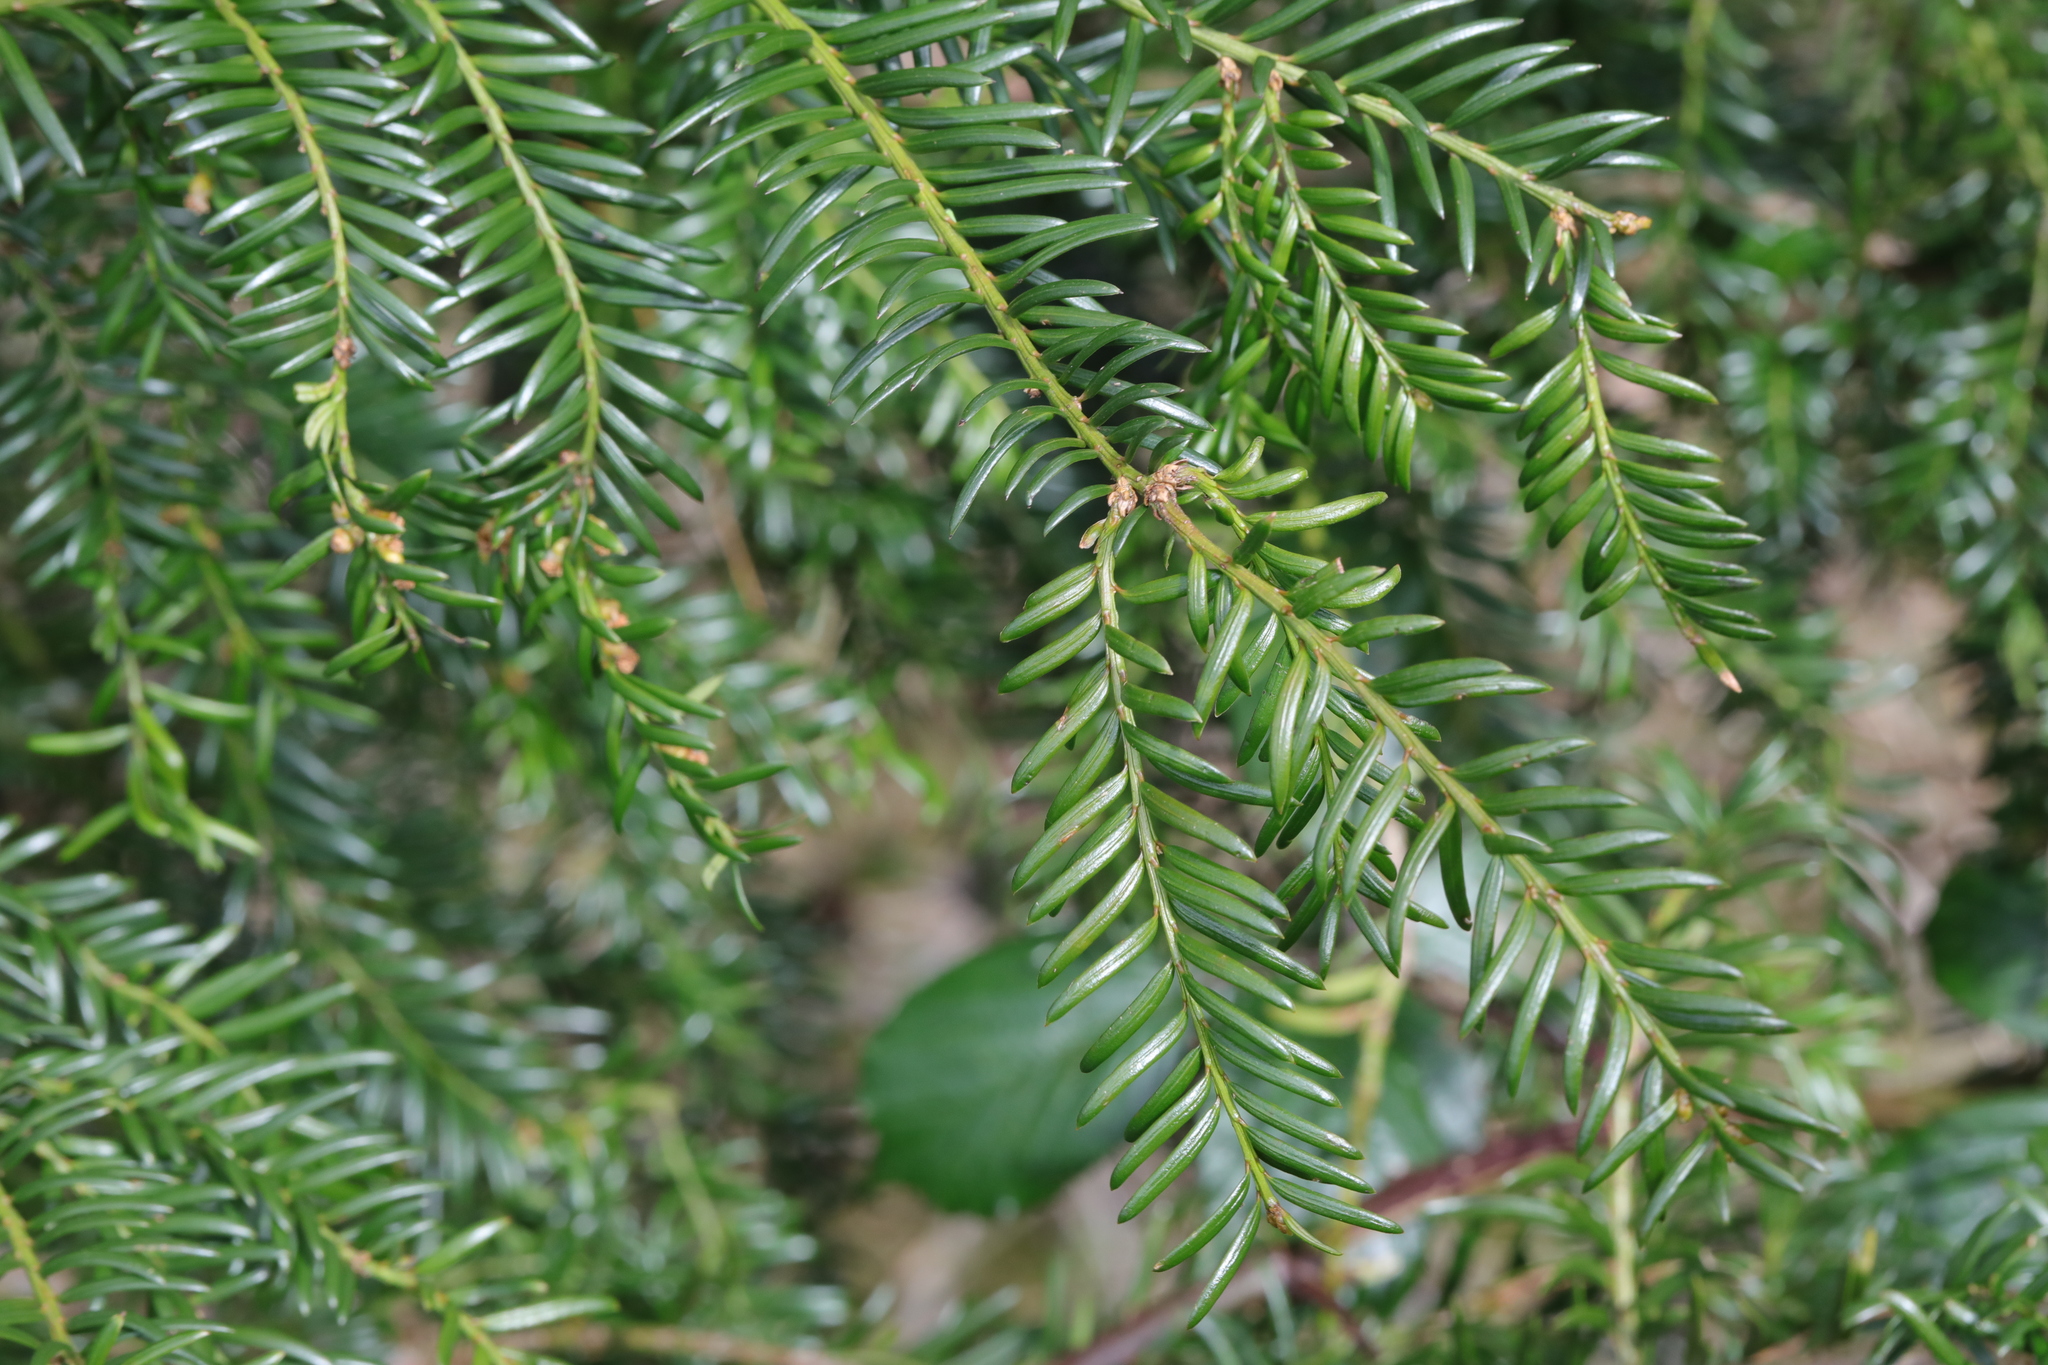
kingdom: Plantae
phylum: Tracheophyta
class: Pinopsida
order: Pinales
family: Taxaceae
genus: Taxus
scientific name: Taxus baccata
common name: Yew
